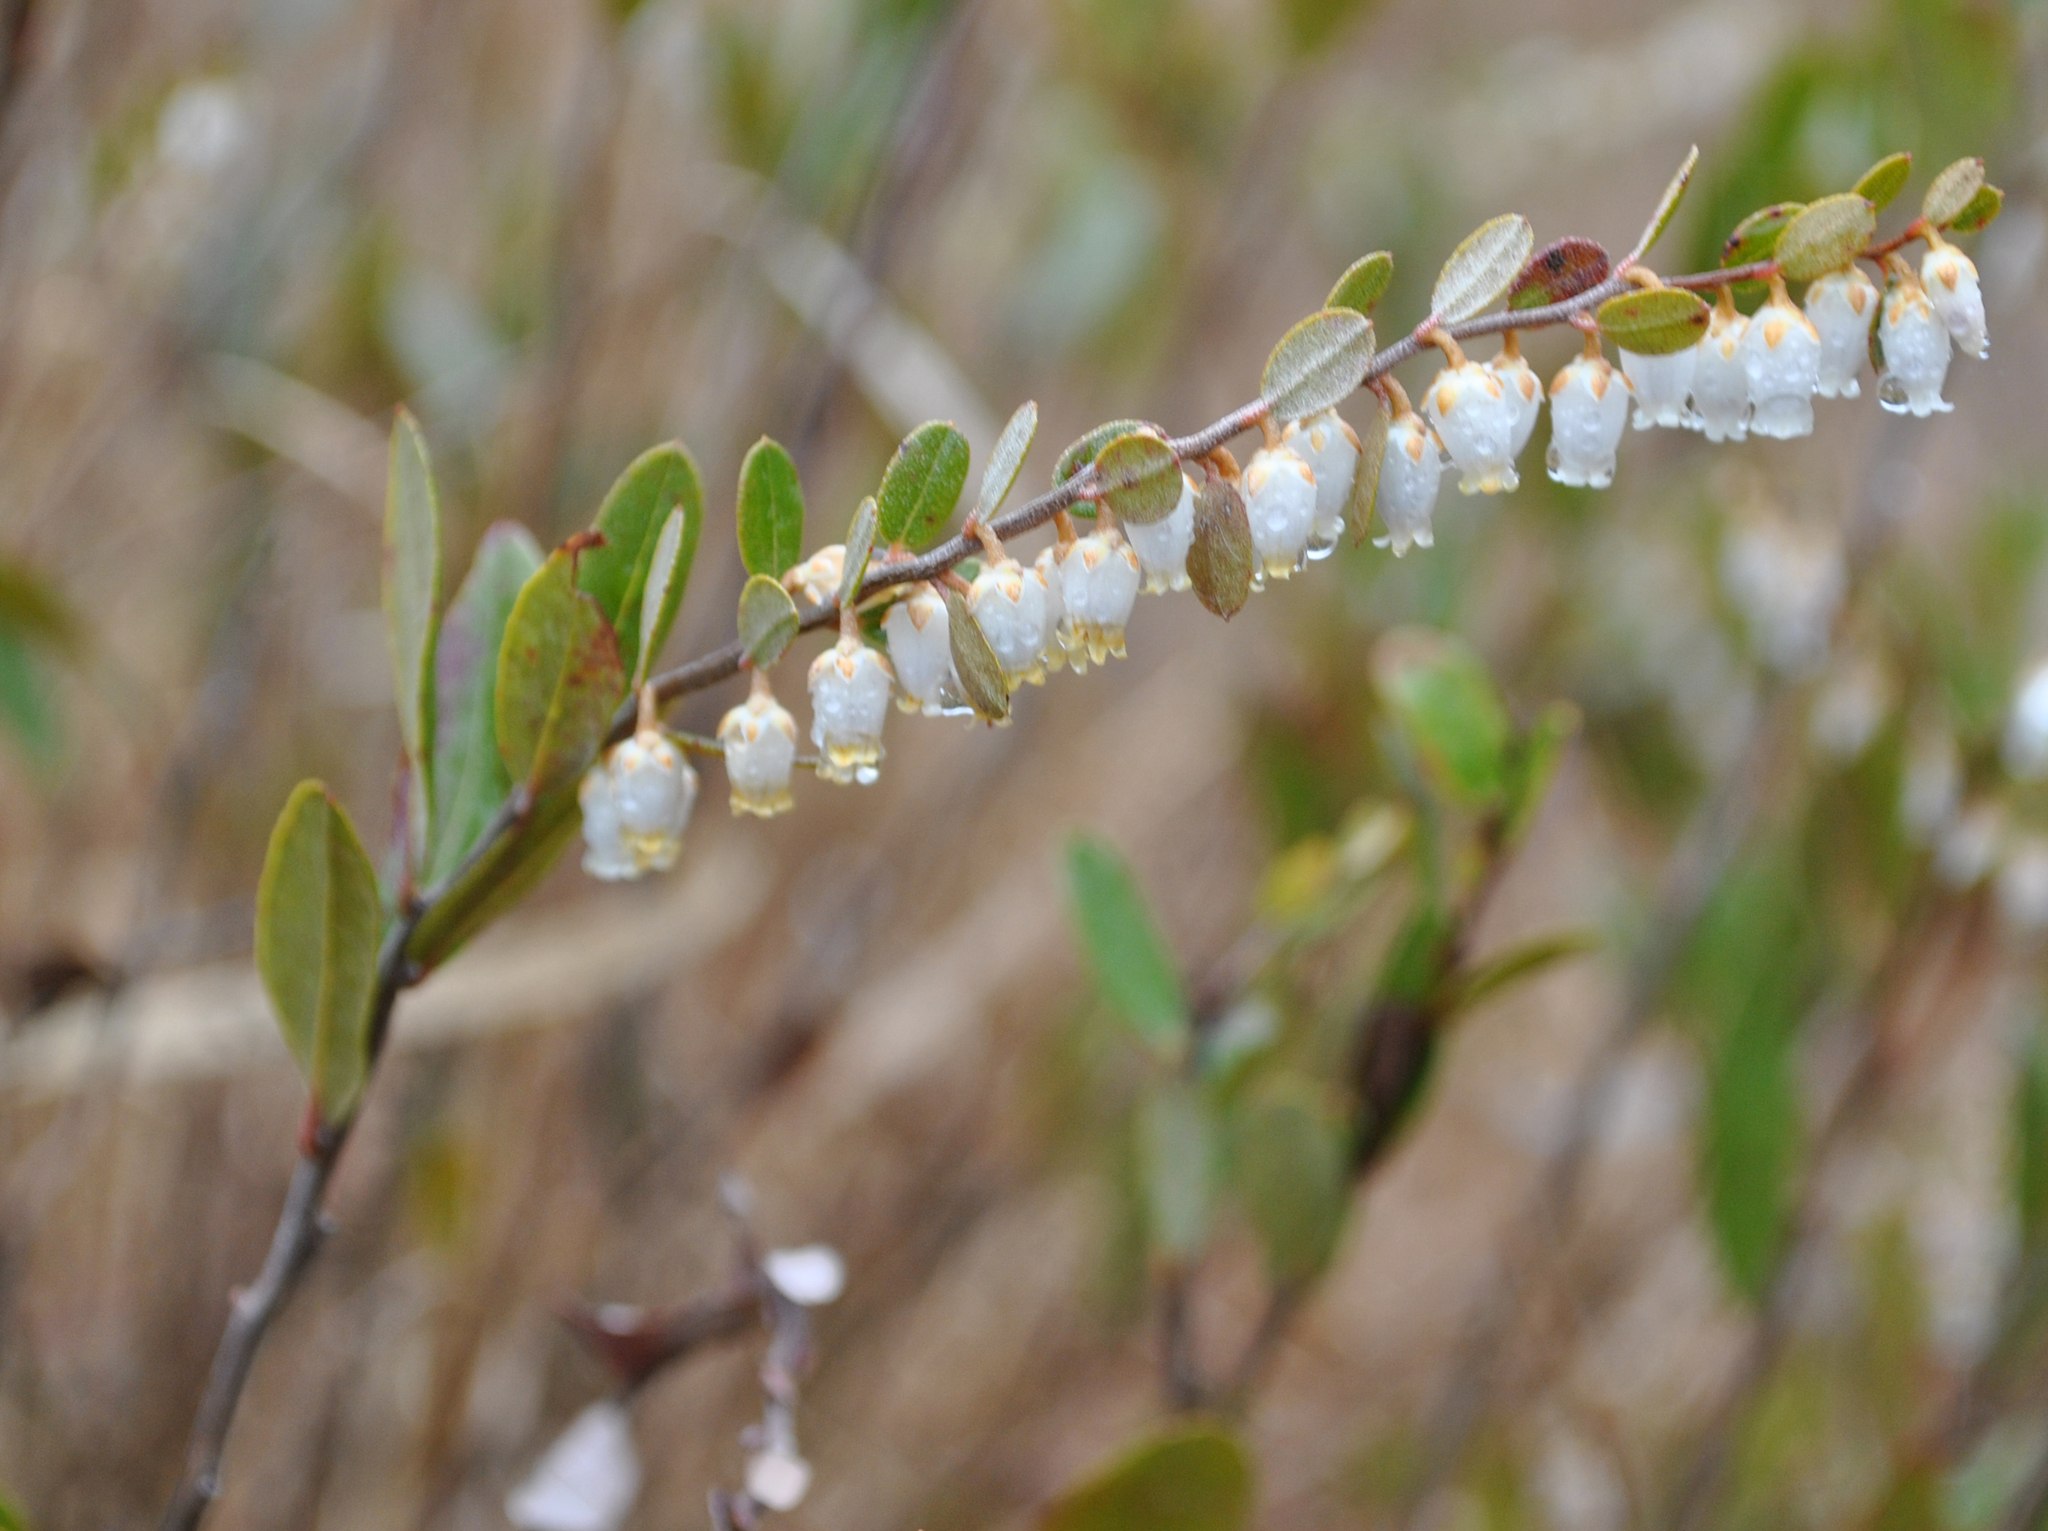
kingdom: Plantae
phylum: Tracheophyta
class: Magnoliopsida
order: Ericales
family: Ericaceae
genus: Chamaedaphne
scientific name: Chamaedaphne calyculata
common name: Leatherleaf
